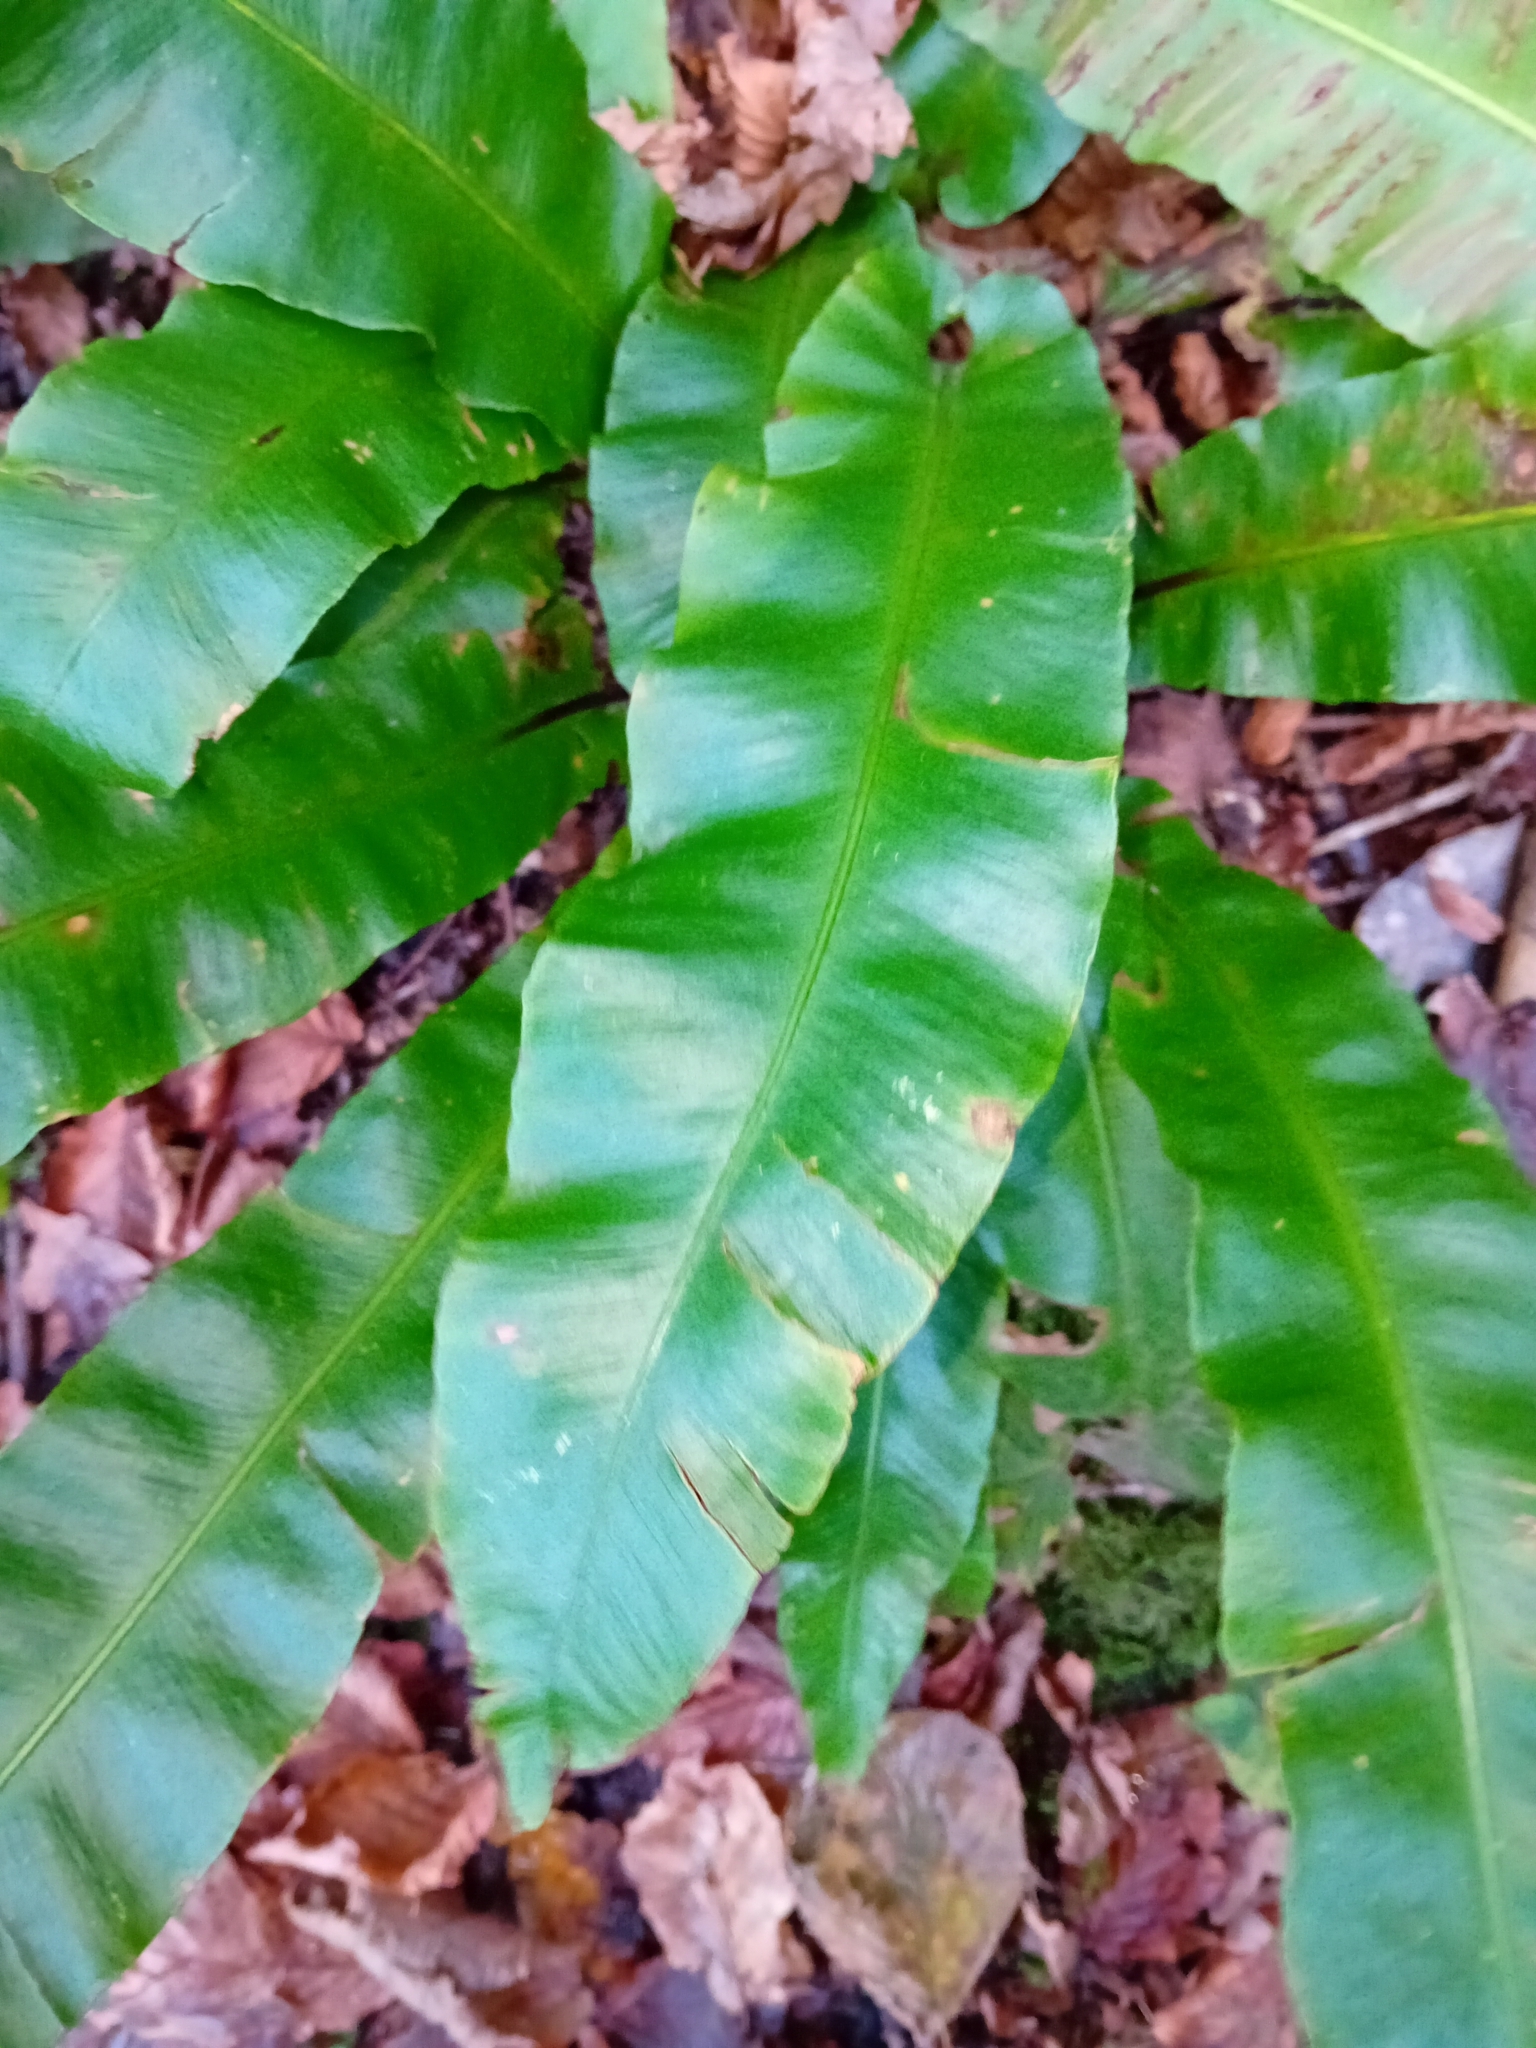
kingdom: Plantae
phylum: Tracheophyta
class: Polypodiopsida
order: Polypodiales
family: Aspleniaceae
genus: Asplenium
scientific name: Asplenium scolopendrium
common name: Hart's-tongue fern
